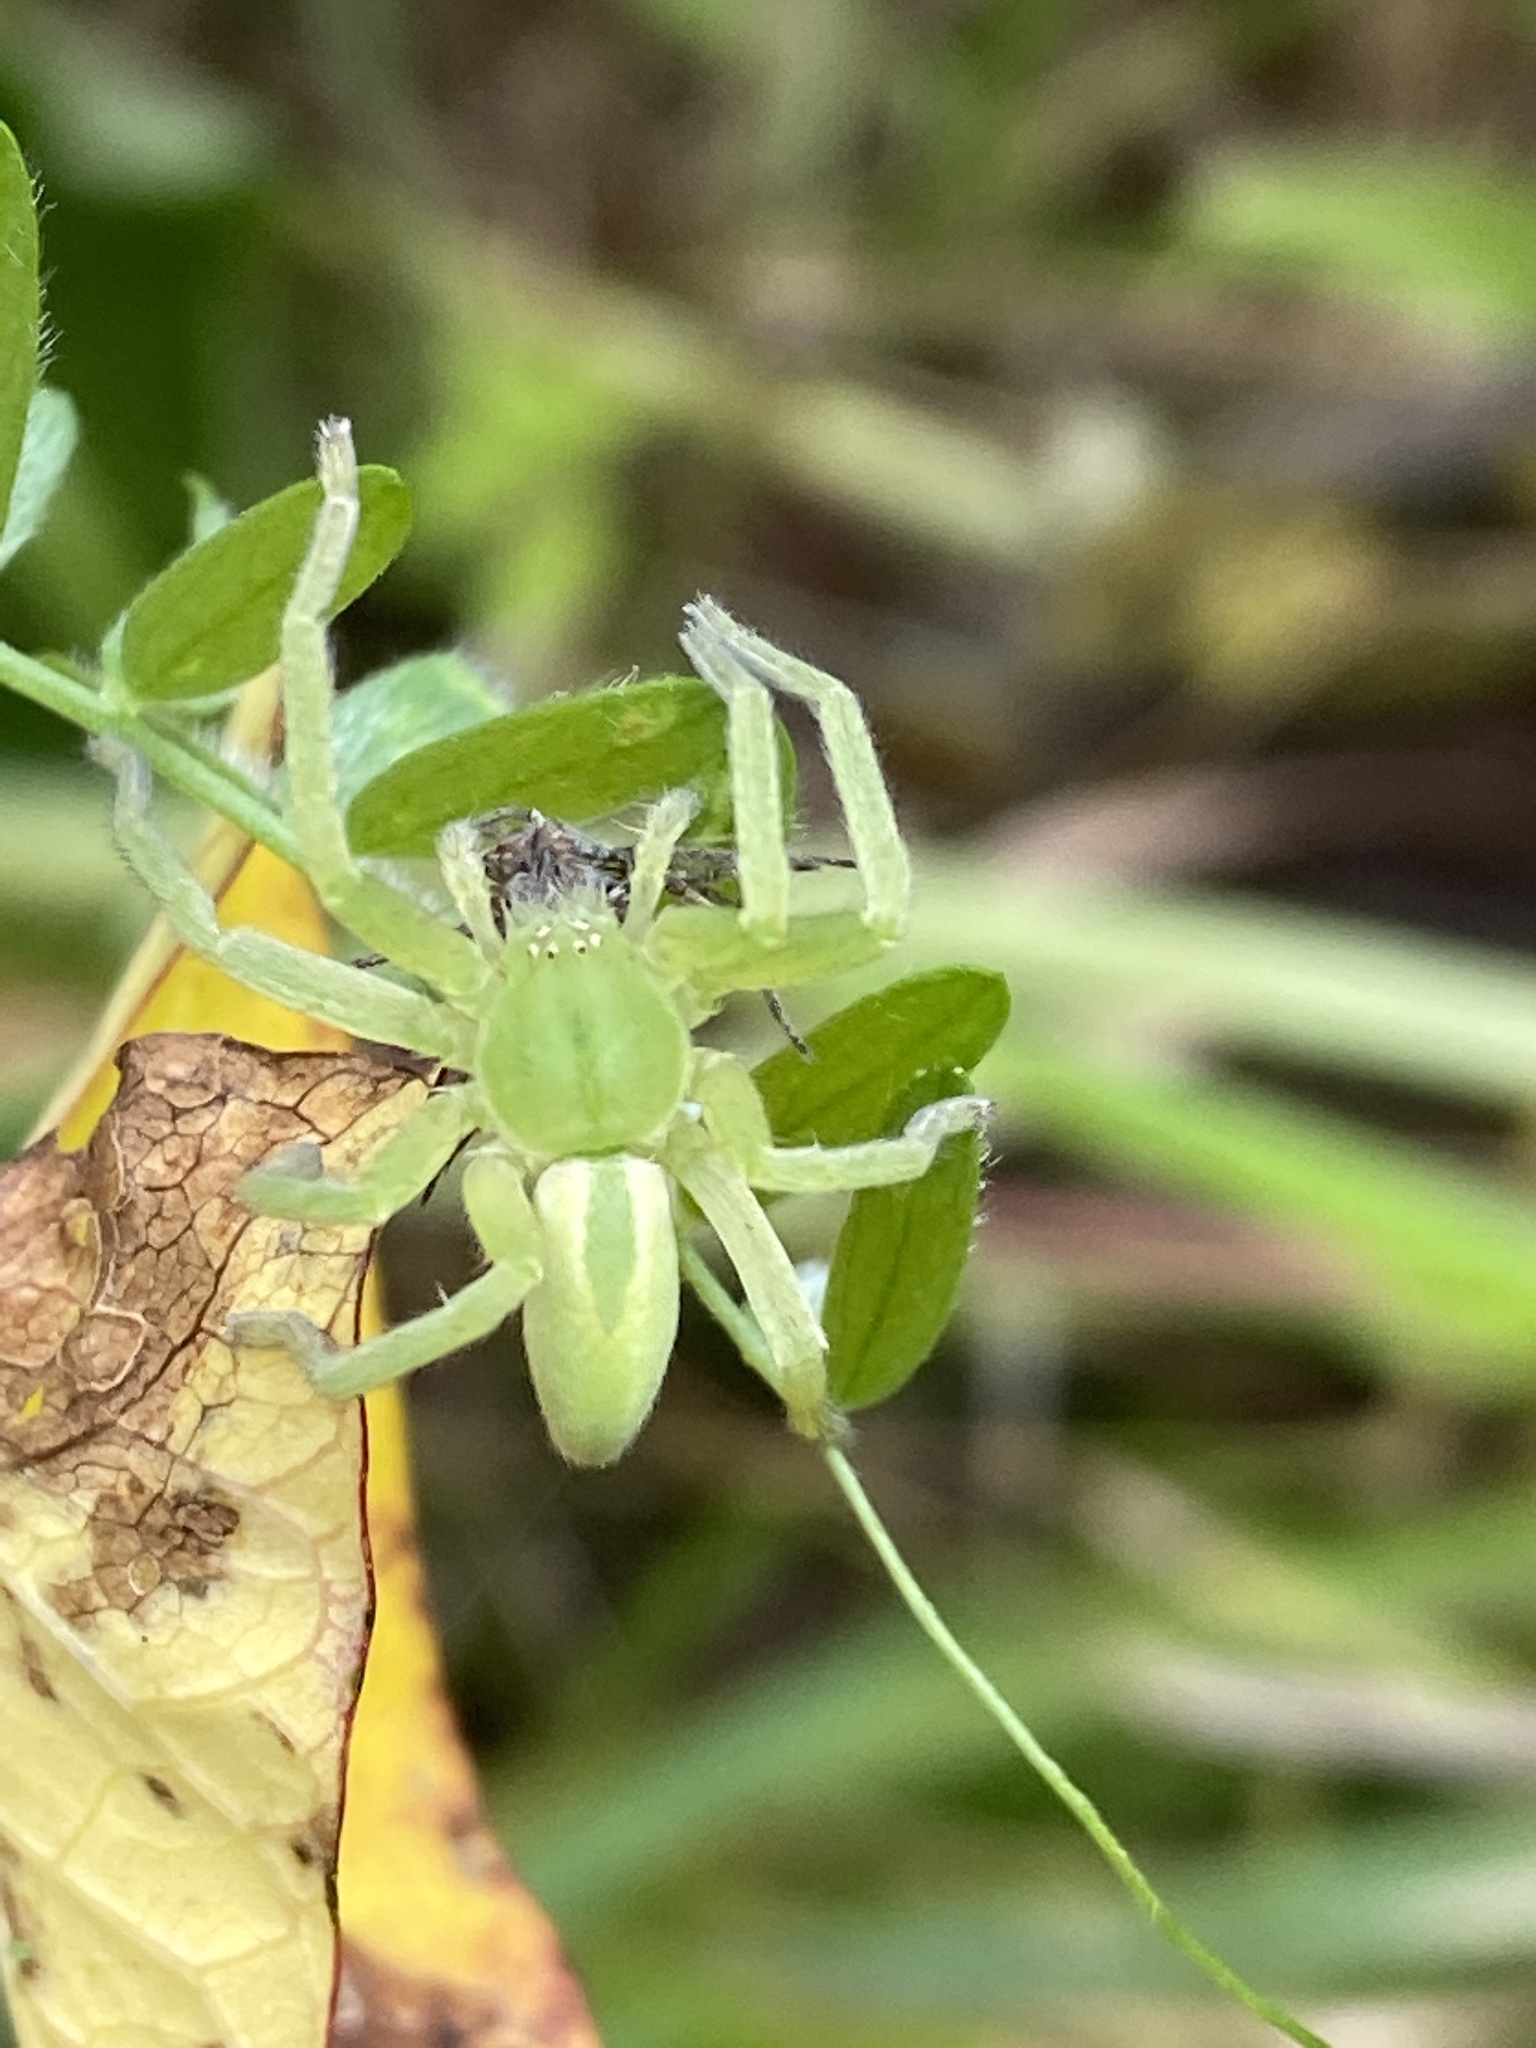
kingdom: Animalia
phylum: Arthropoda
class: Arachnida
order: Araneae
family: Sparassidae
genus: Micrommata
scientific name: Micrommata virescens
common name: Green spider
